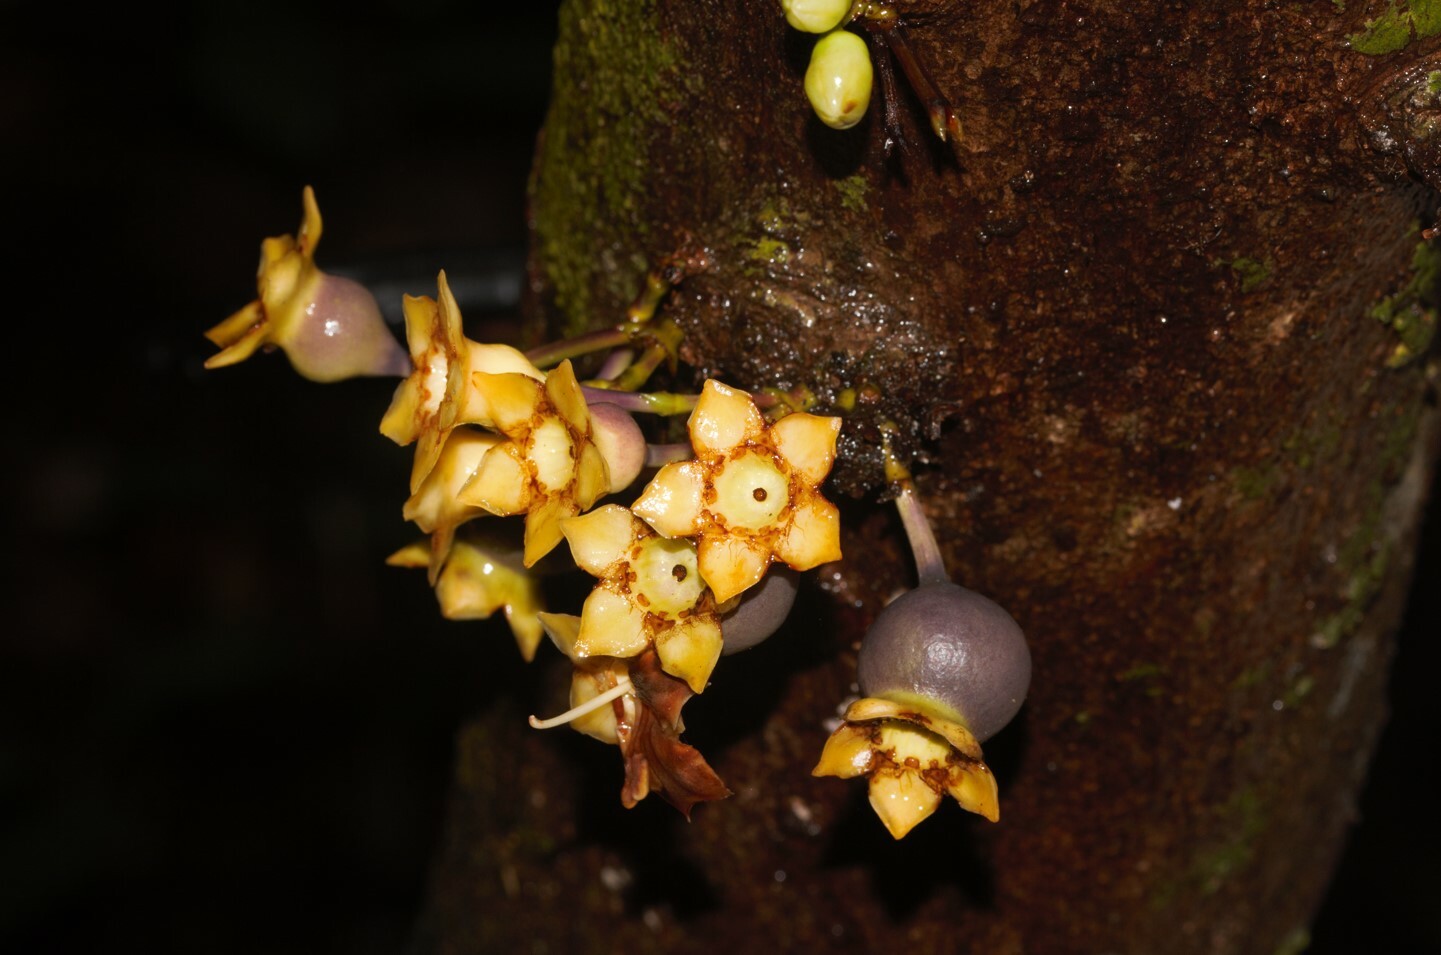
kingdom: Plantae
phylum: Tracheophyta
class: Magnoliopsida
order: Myrtales
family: Melastomataceae
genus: Mouriri
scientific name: Mouriri francavillana
